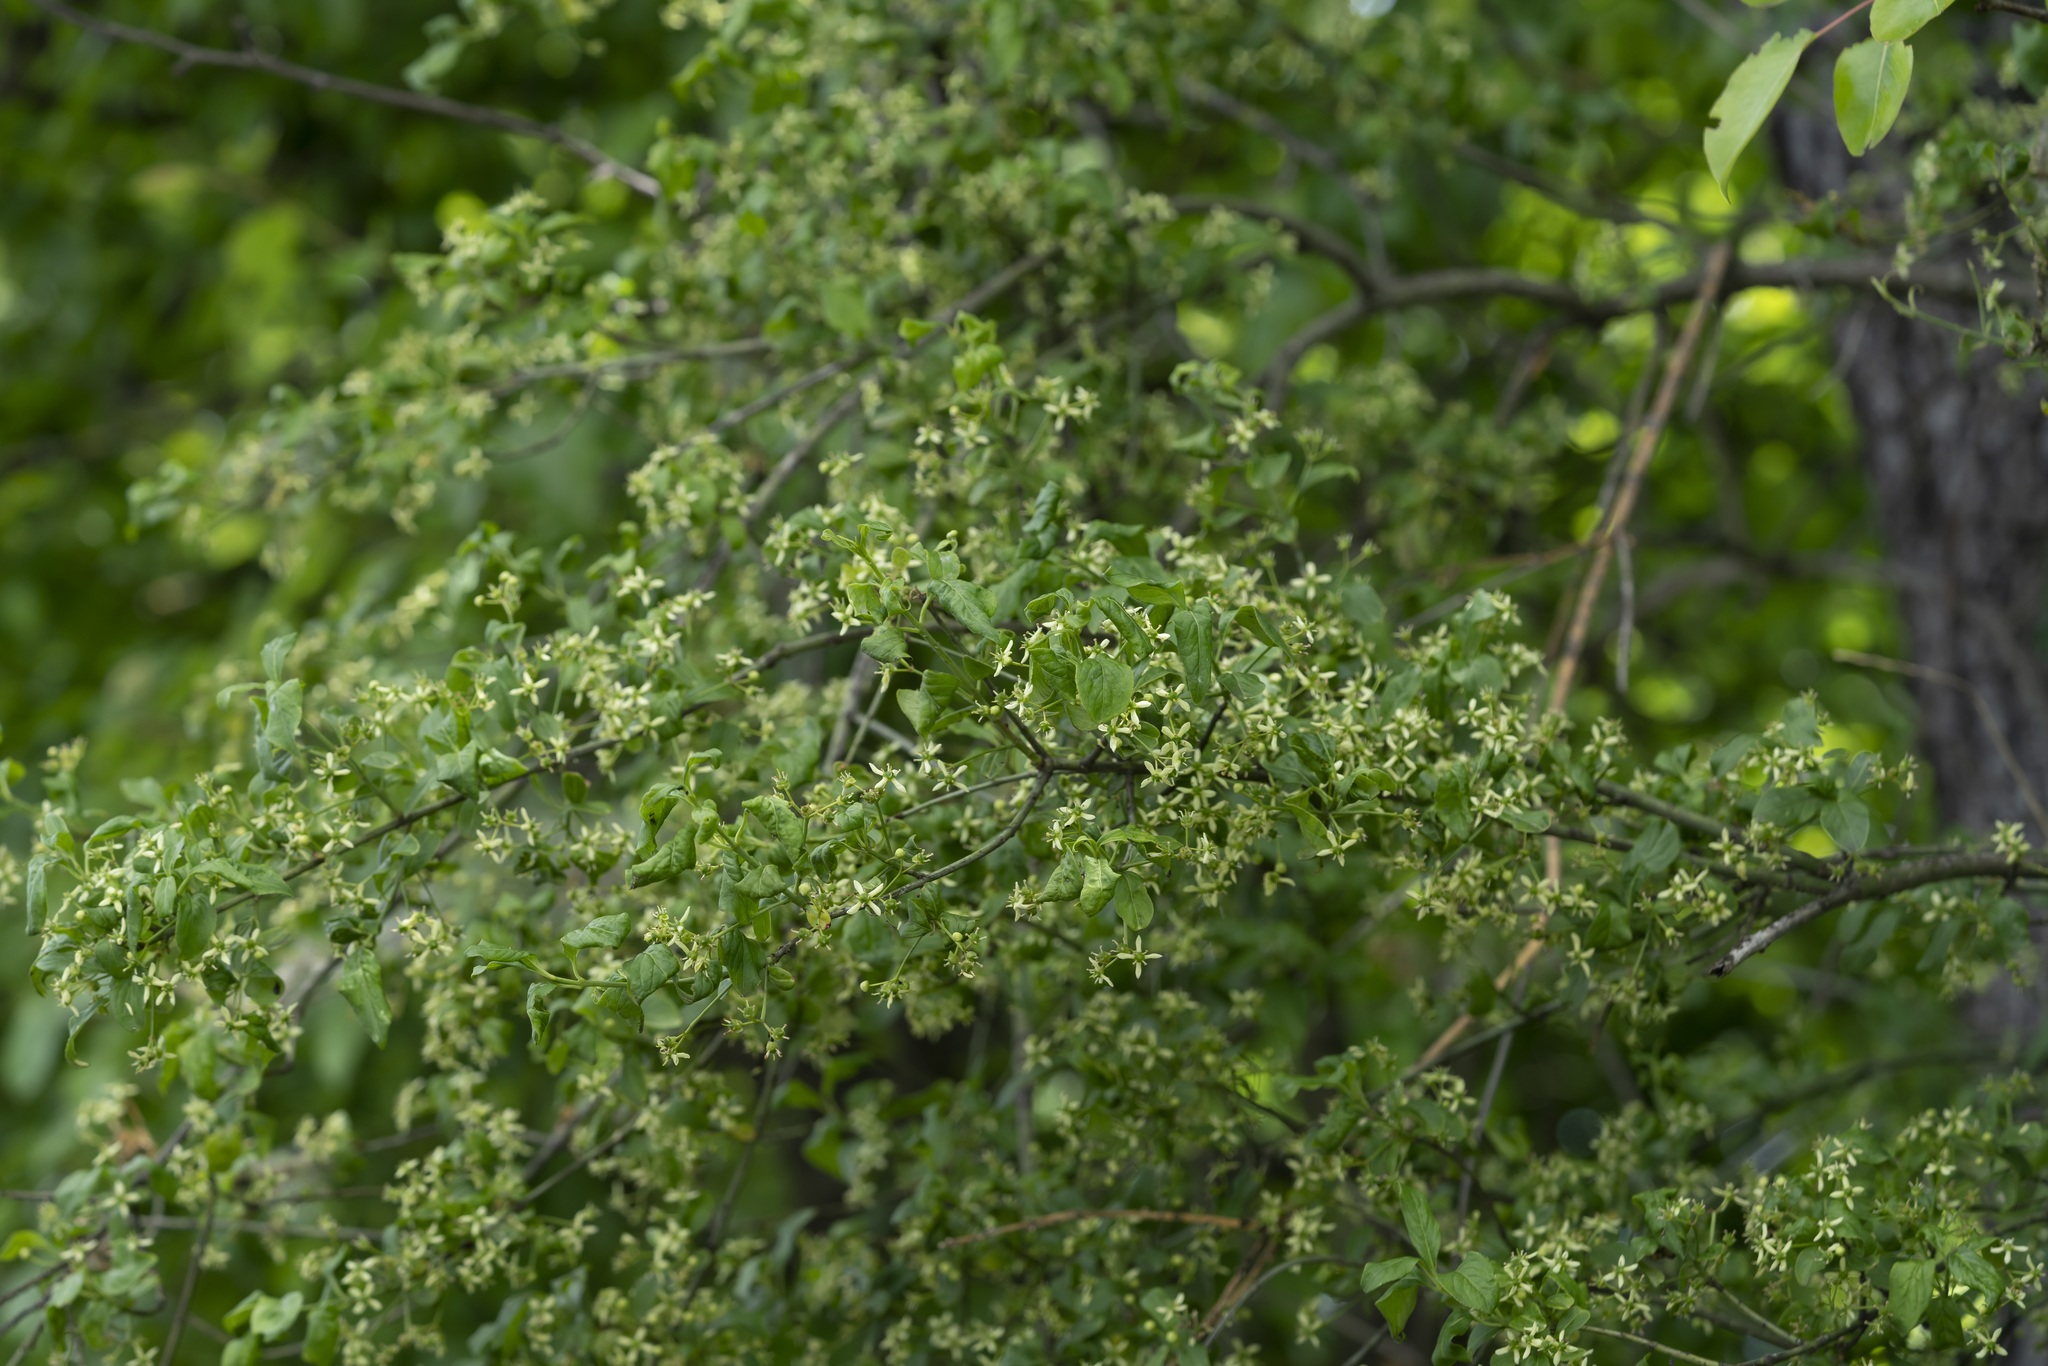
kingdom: Plantae
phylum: Tracheophyta
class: Magnoliopsida
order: Celastrales
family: Celastraceae
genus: Euonymus
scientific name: Euonymus europaeus
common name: Spindle
